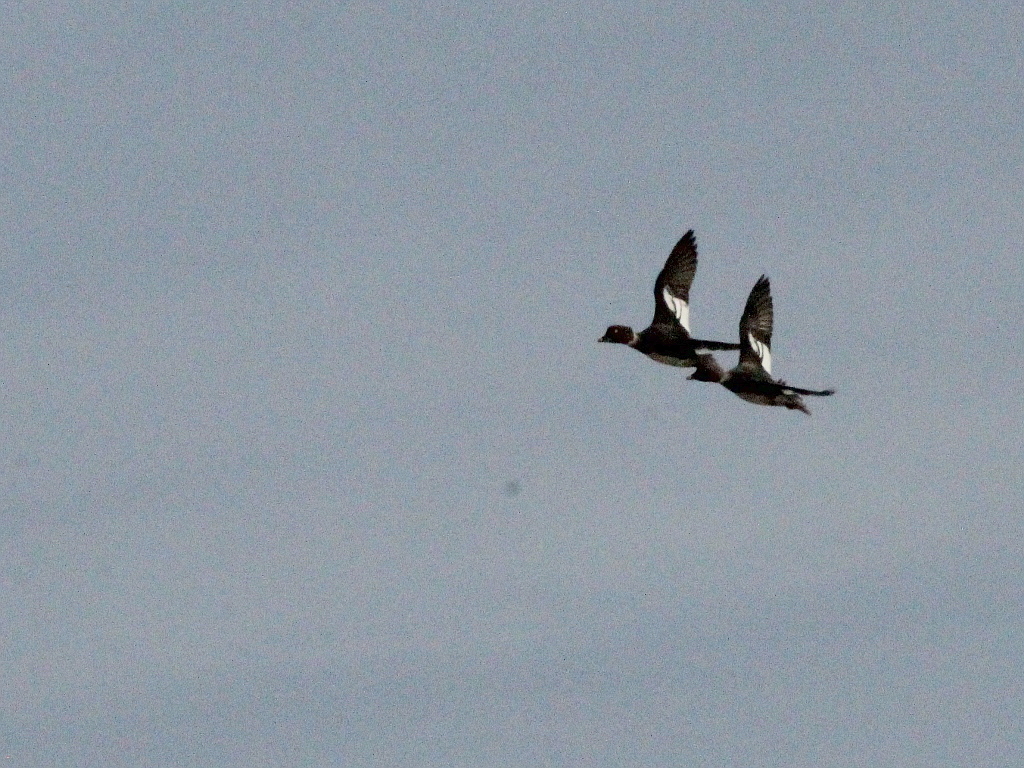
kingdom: Animalia
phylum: Chordata
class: Aves
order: Anseriformes
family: Anatidae
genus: Bucephala
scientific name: Bucephala clangula
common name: Common goldeneye
